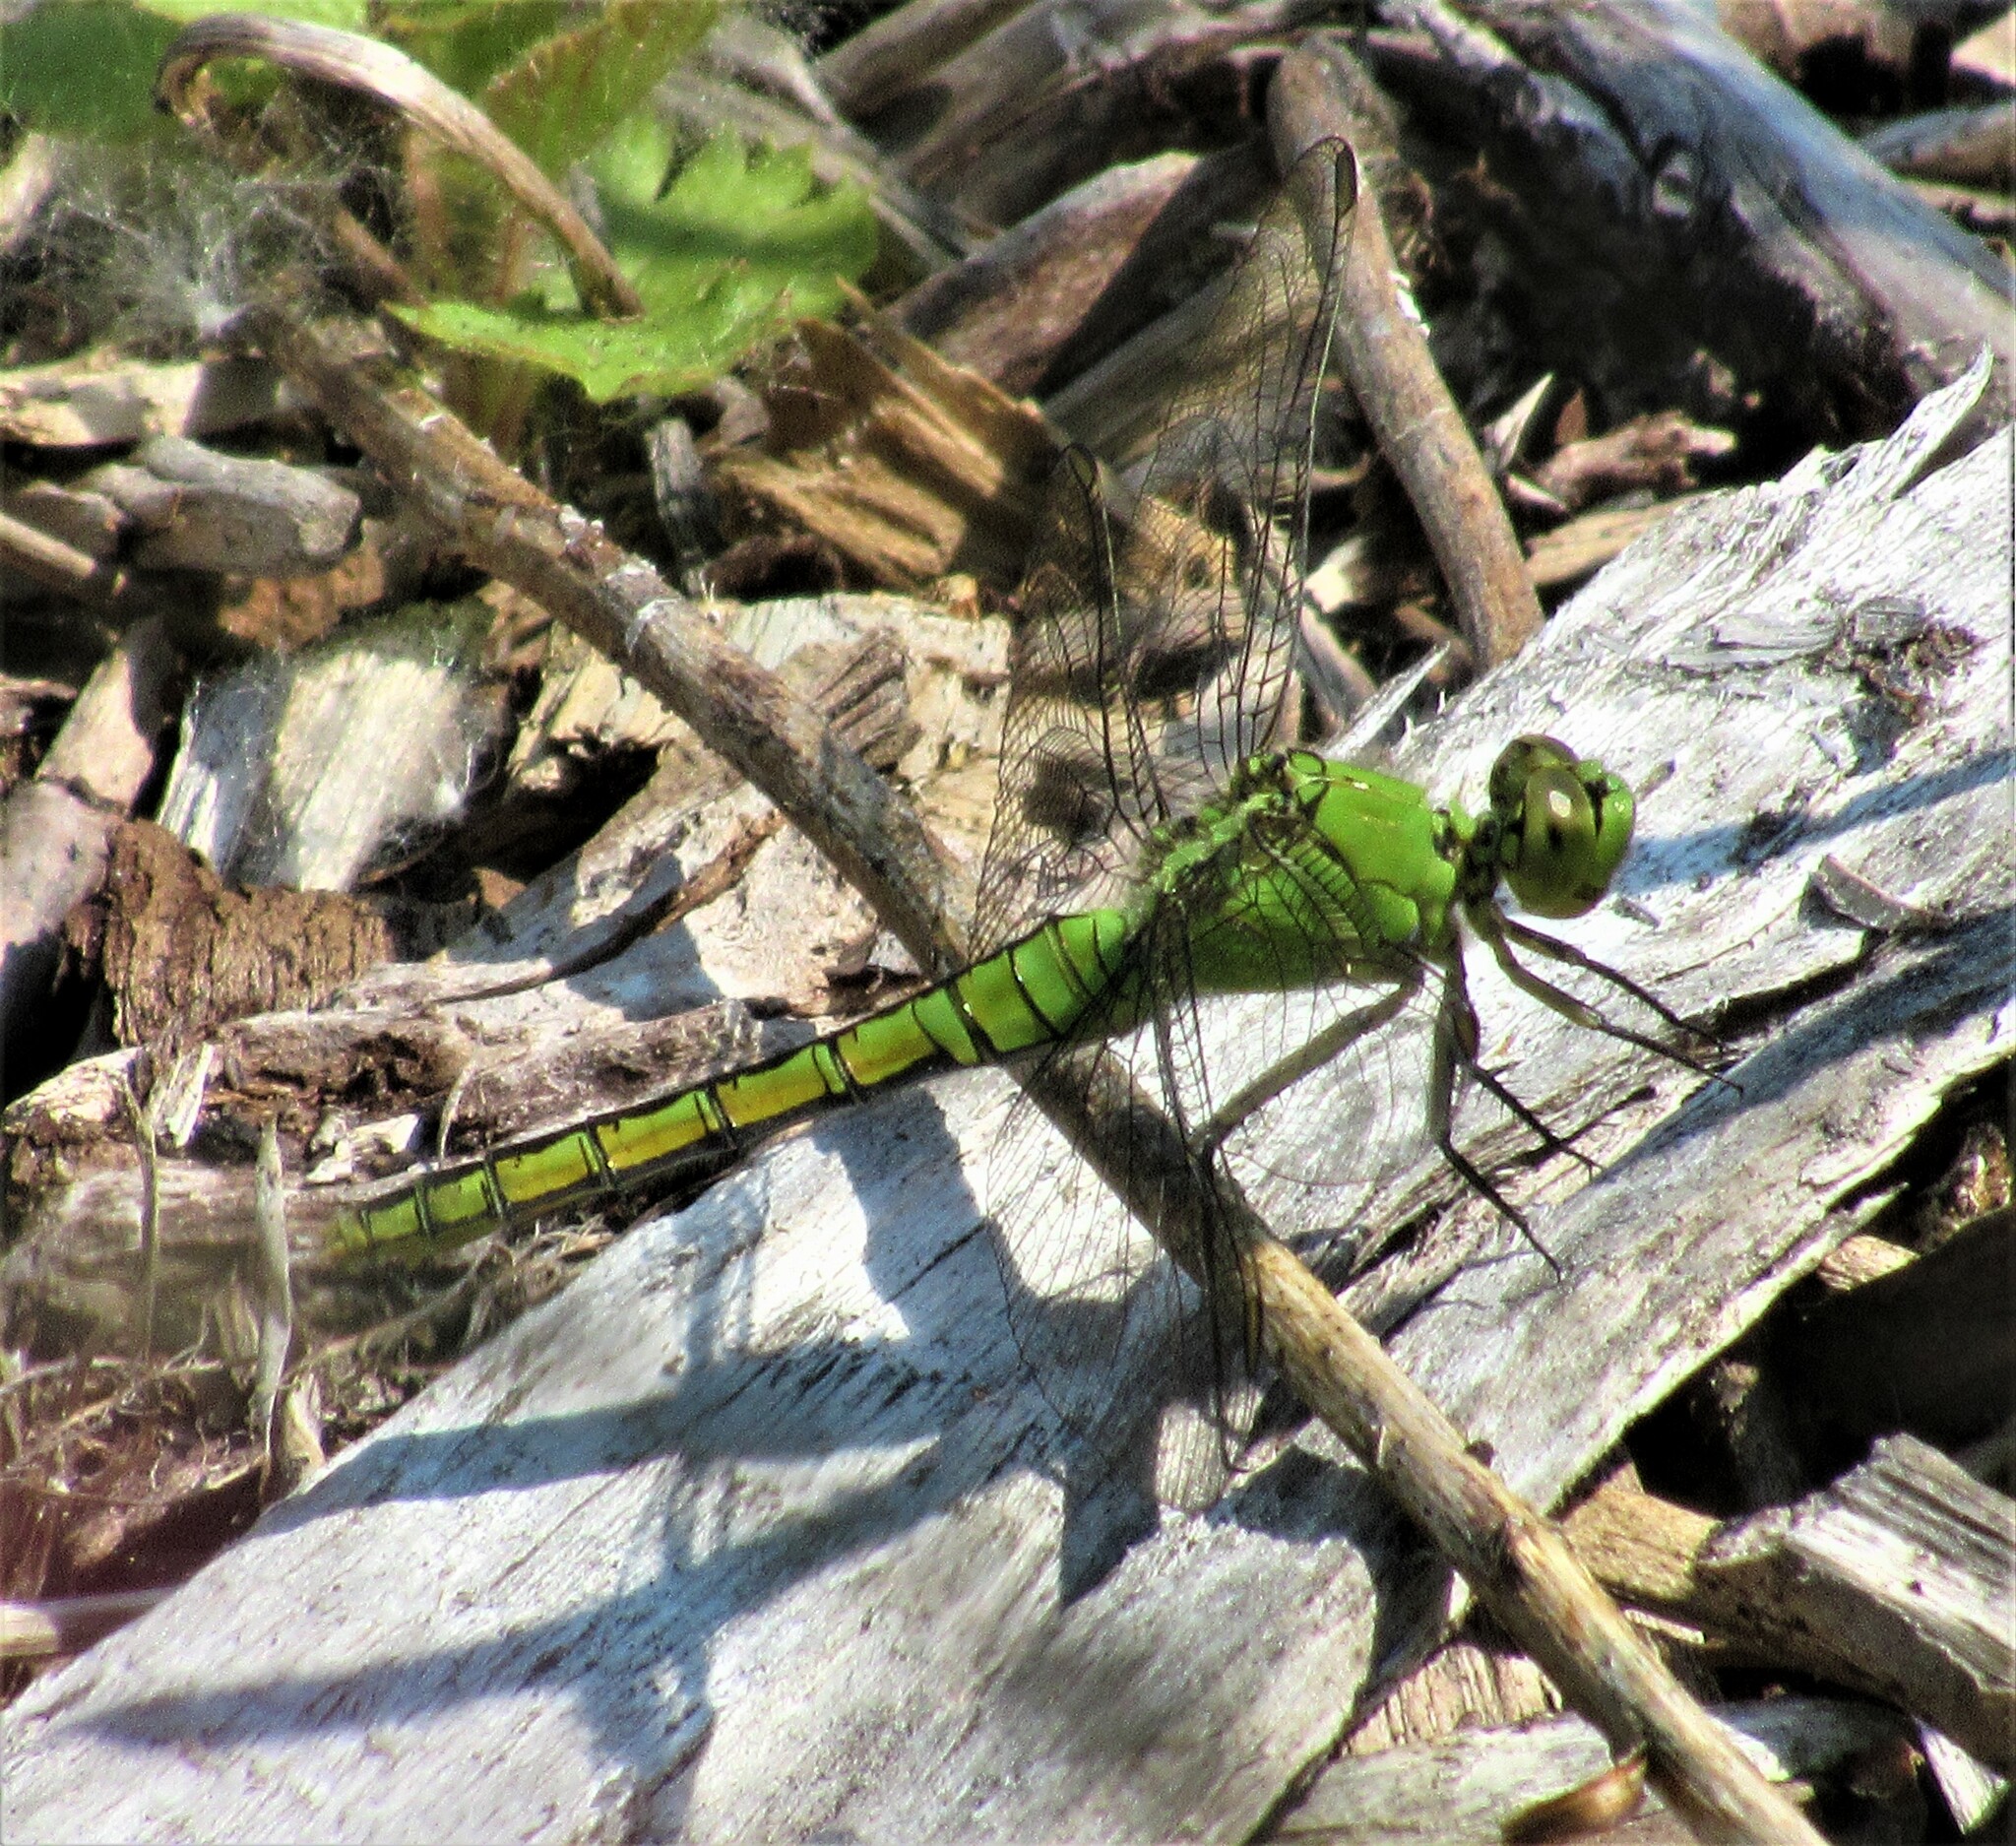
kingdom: Animalia
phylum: Arthropoda
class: Insecta
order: Odonata
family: Libellulidae
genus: Erythemis
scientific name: Erythemis collocata
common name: Western pondhawk
